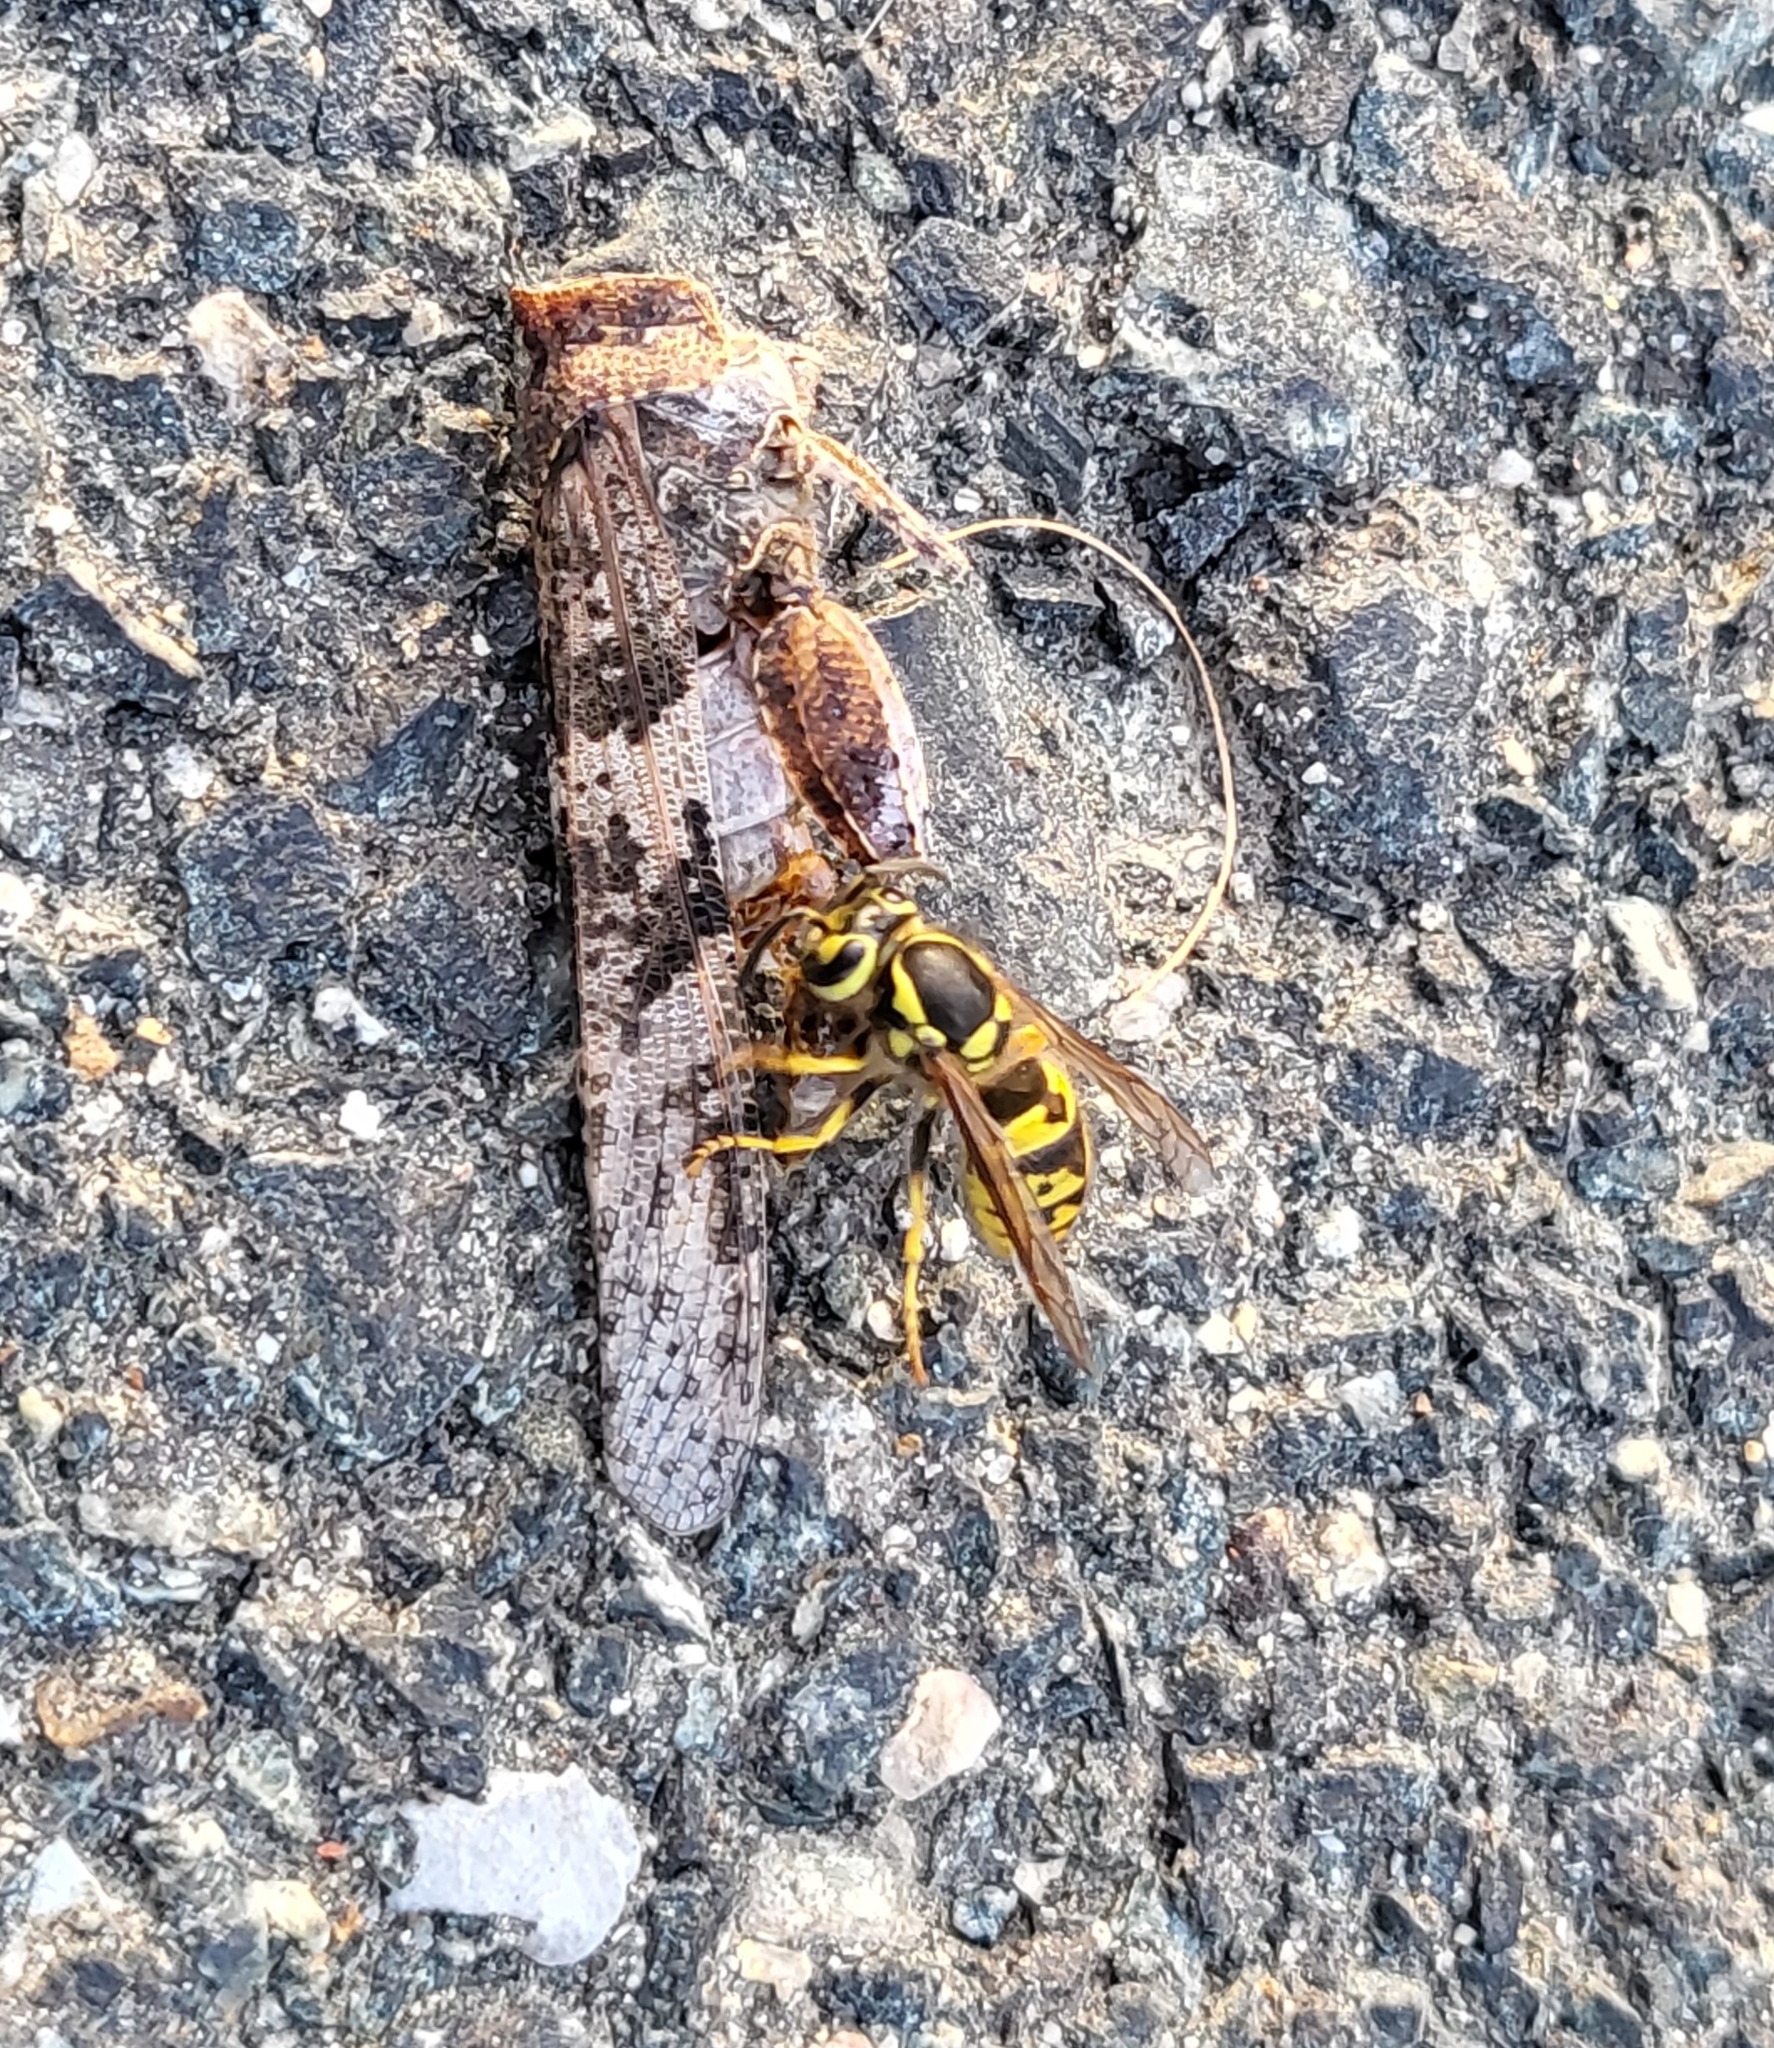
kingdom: Animalia
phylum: Arthropoda
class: Insecta
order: Hymenoptera
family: Vespidae
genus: Vespula
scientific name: Vespula pensylvanica
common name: Western yellowjacket
